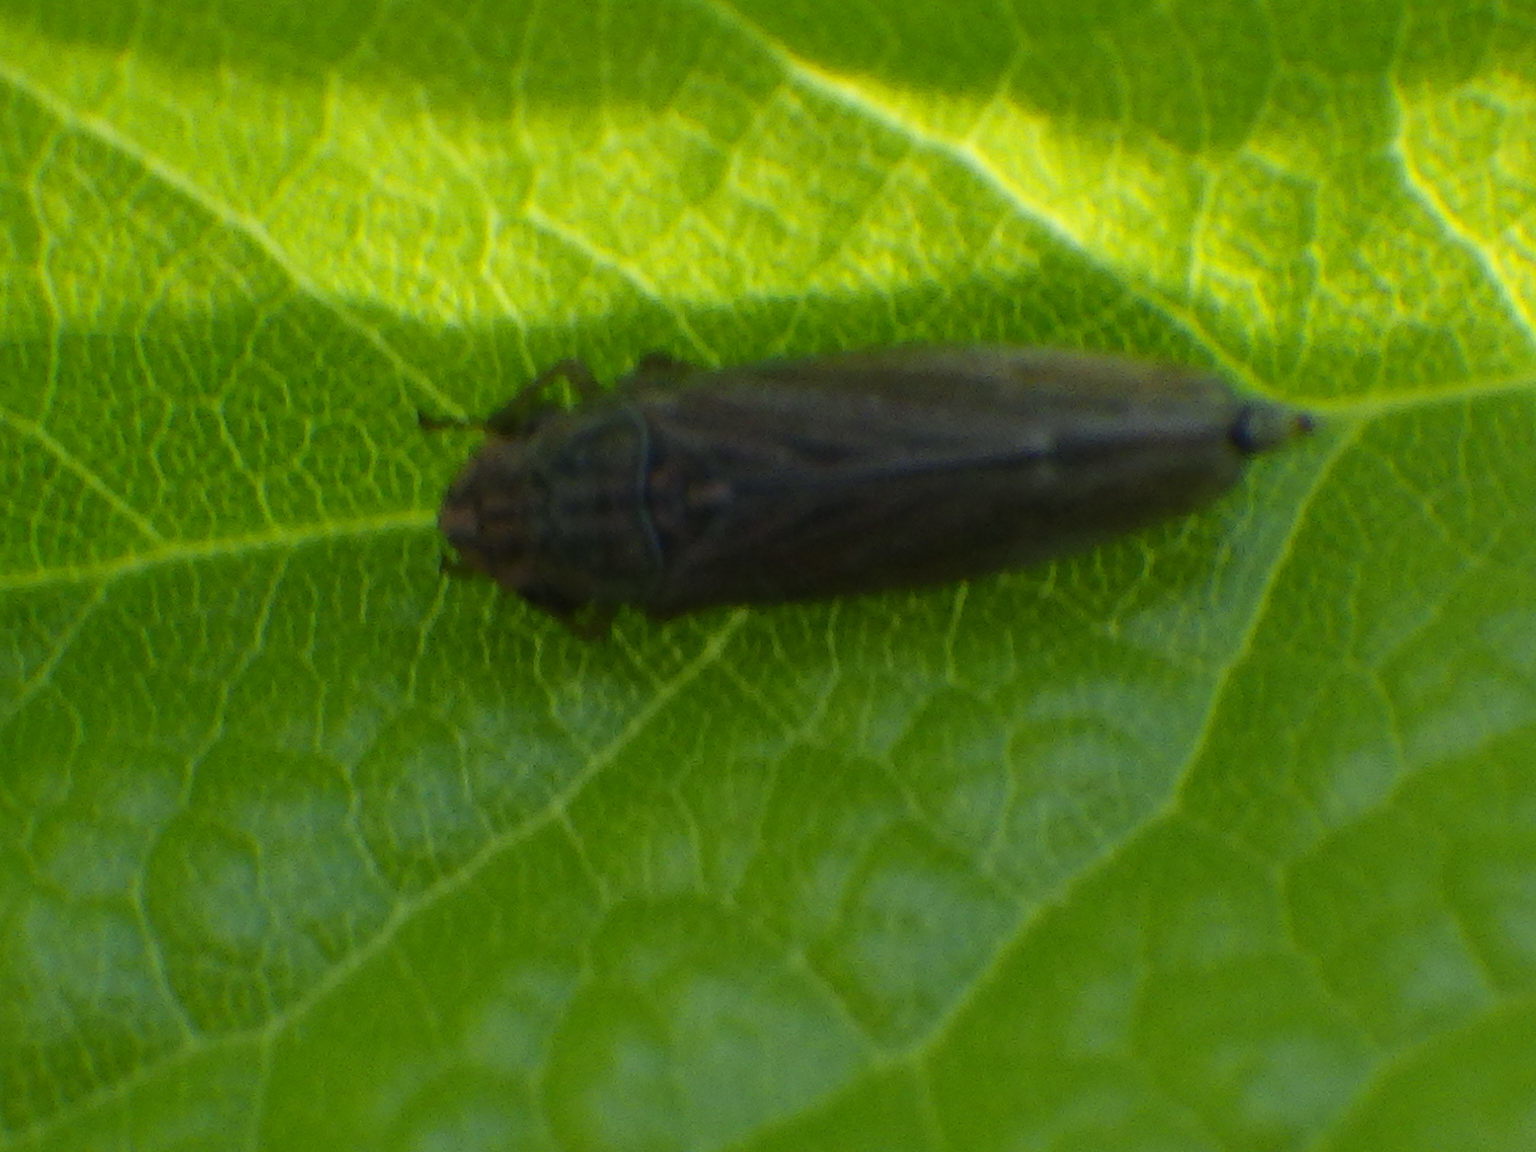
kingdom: Animalia
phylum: Arthropoda
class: Insecta
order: Hemiptera
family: Cicadellidae
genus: Neokolla
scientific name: Neokolla hieroglyphica
